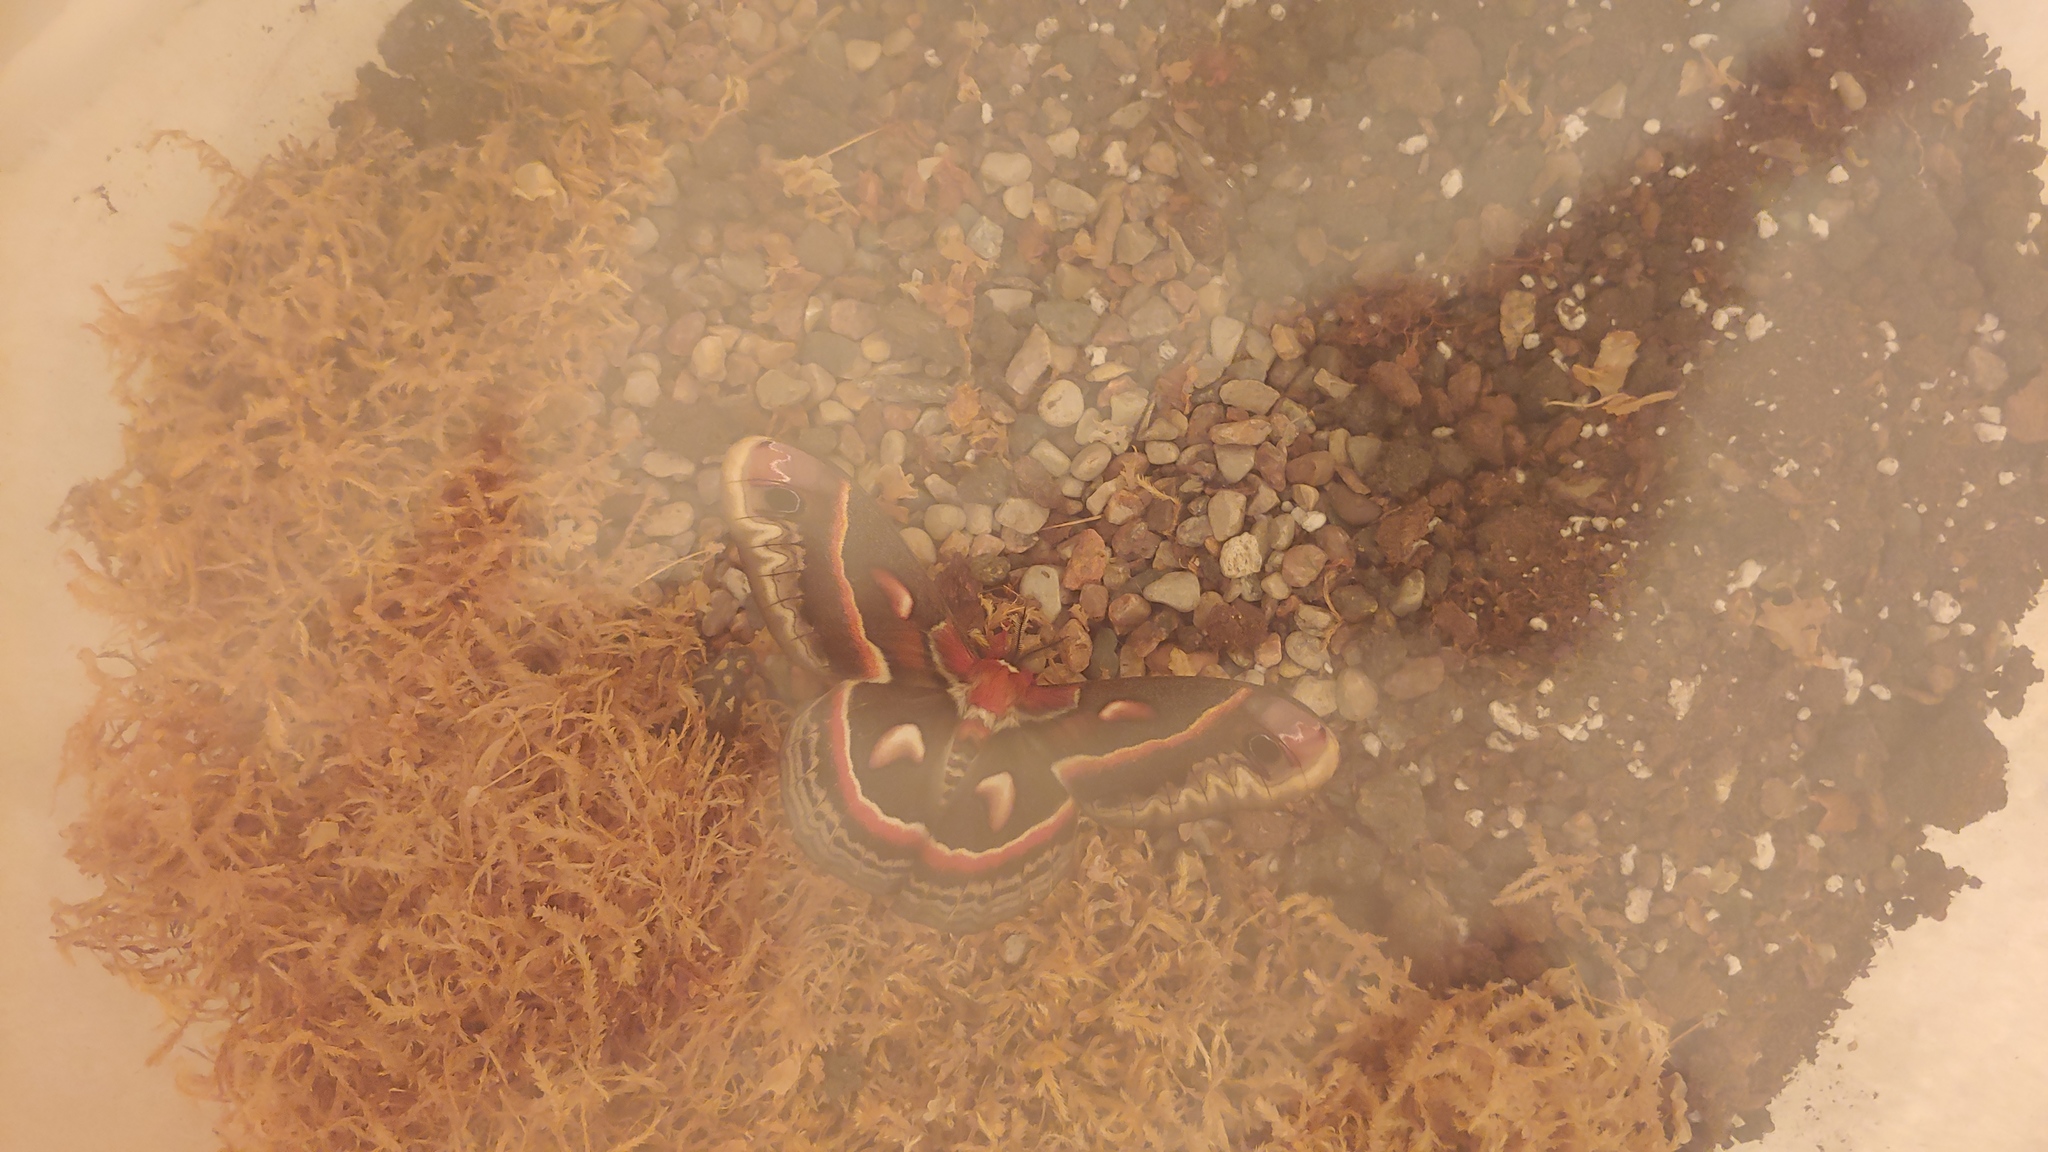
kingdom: Animalia
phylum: Arthropoda
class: Insecta
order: Lepidoptera
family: Saturniidae
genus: Hyalophora
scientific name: Hyalophora cecropia
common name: Cecropia silkmoth
